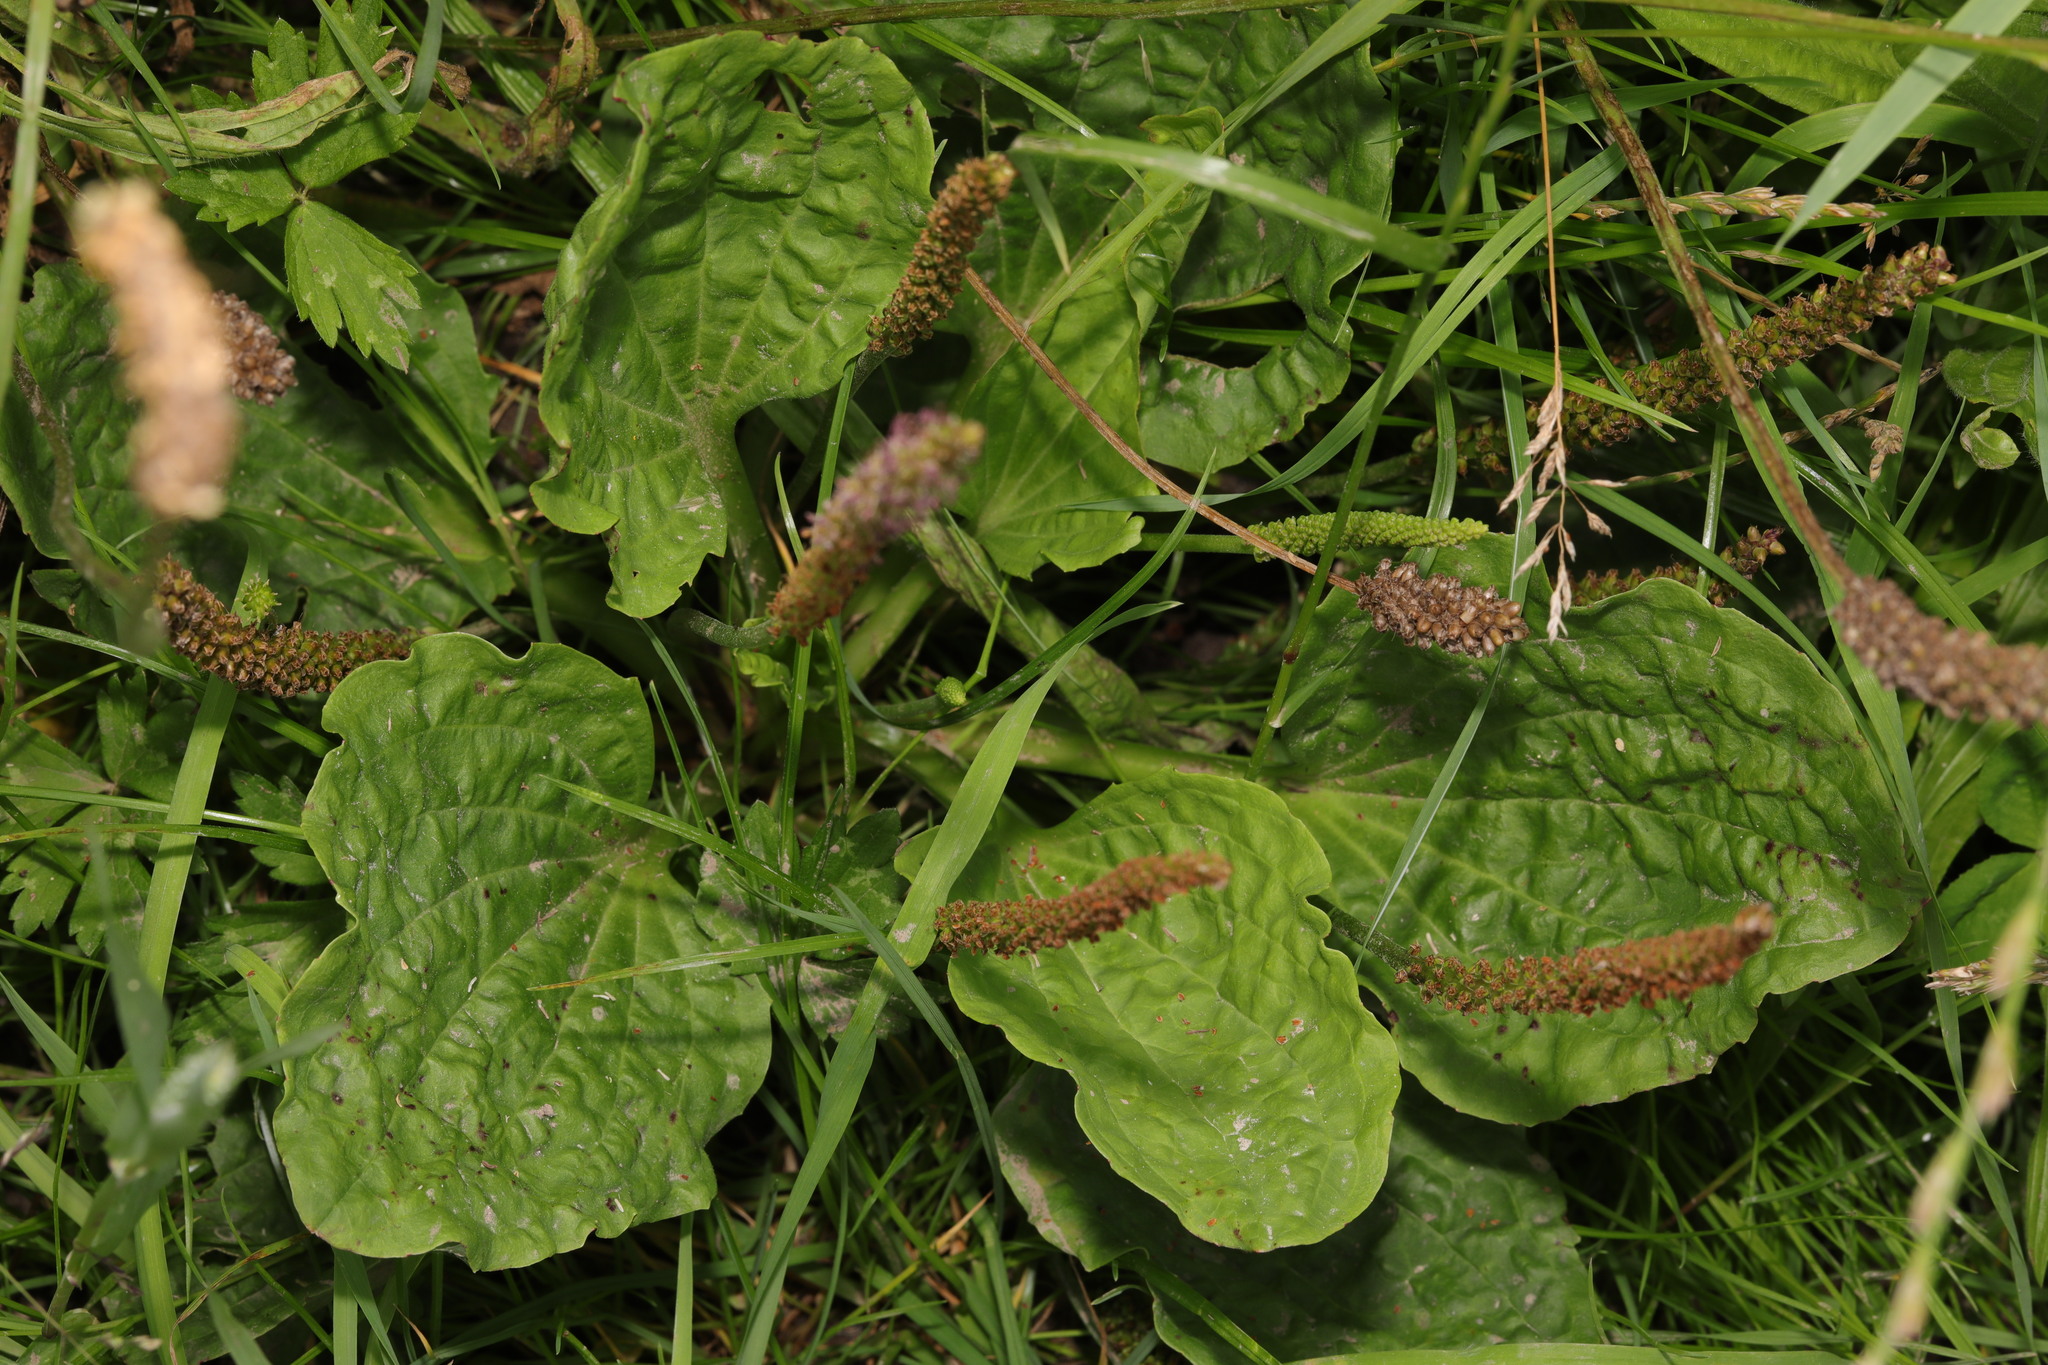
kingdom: Plantae
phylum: Tracheophyta
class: Magnoliopsida
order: Lamiales
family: Plantaginaceae
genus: Plantago
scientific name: Plantago major
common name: Common plantain
